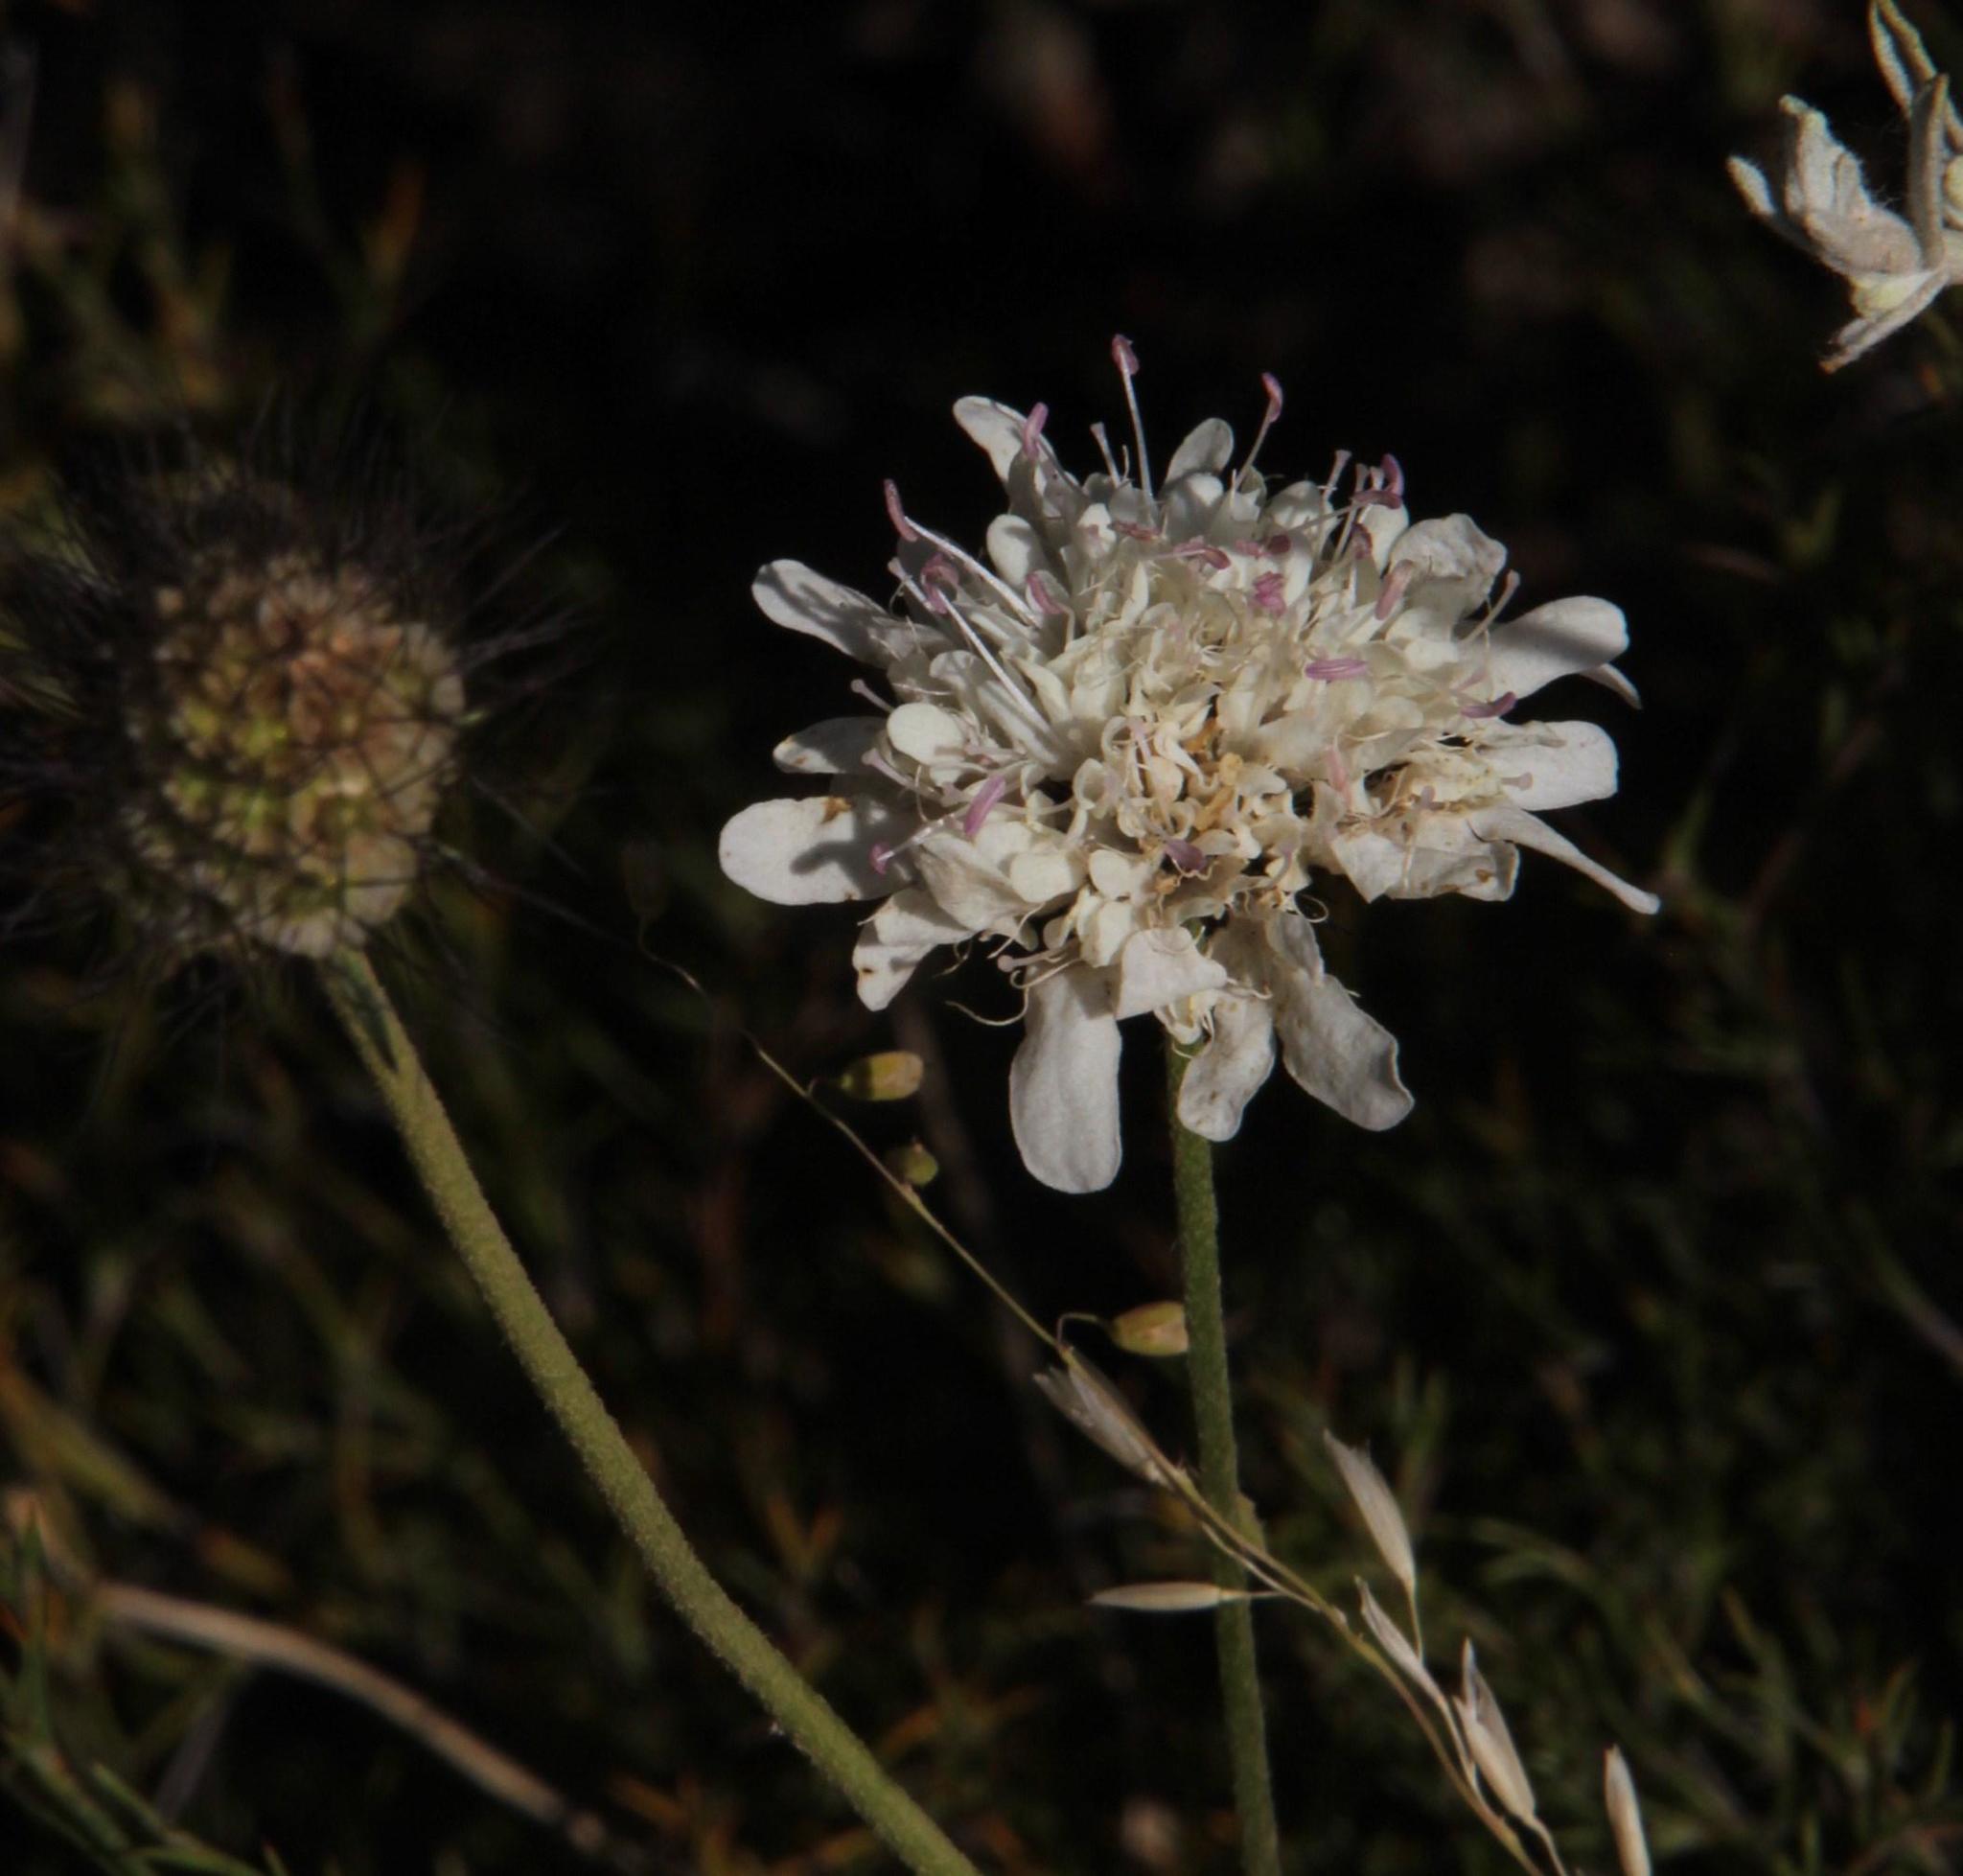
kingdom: Plantae
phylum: Tracheophyta
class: Magnoliopsida
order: Dipsacales
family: Caprifoliaceae
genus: Scabiosa
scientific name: Scabiosa columbaria
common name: Small scabious
